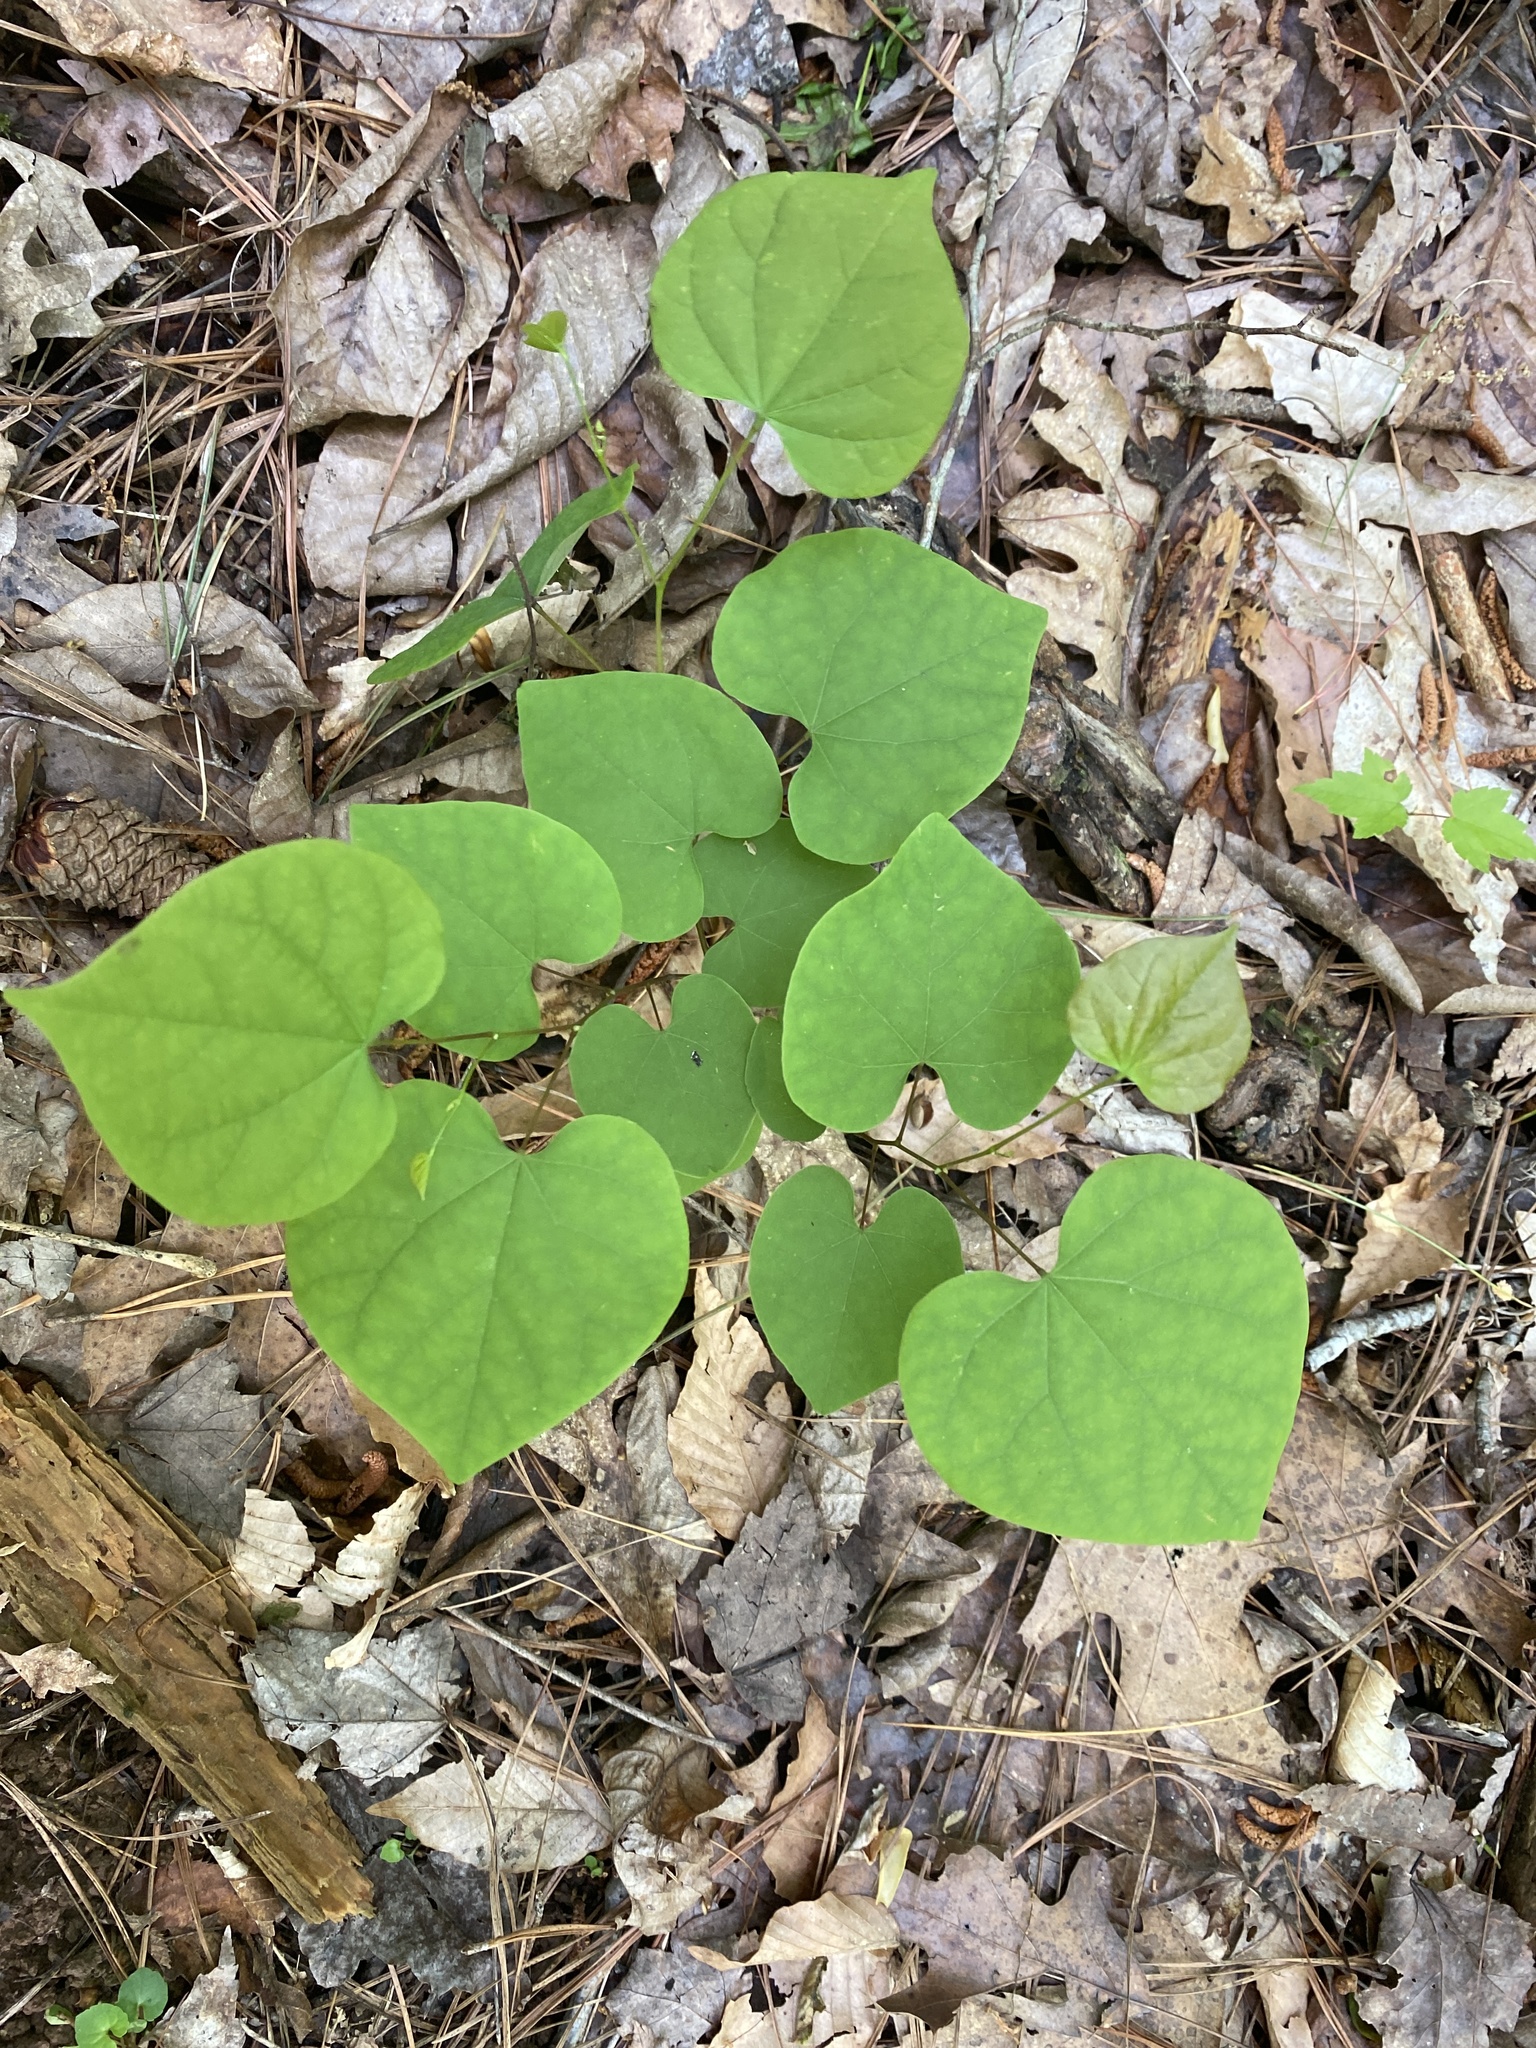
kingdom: Plantae
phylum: Tracheophyta
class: Magnoliopsida
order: Fabales
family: Fabaceae
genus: Cercis
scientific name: Cercis canadensis
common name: Eastern redbud
